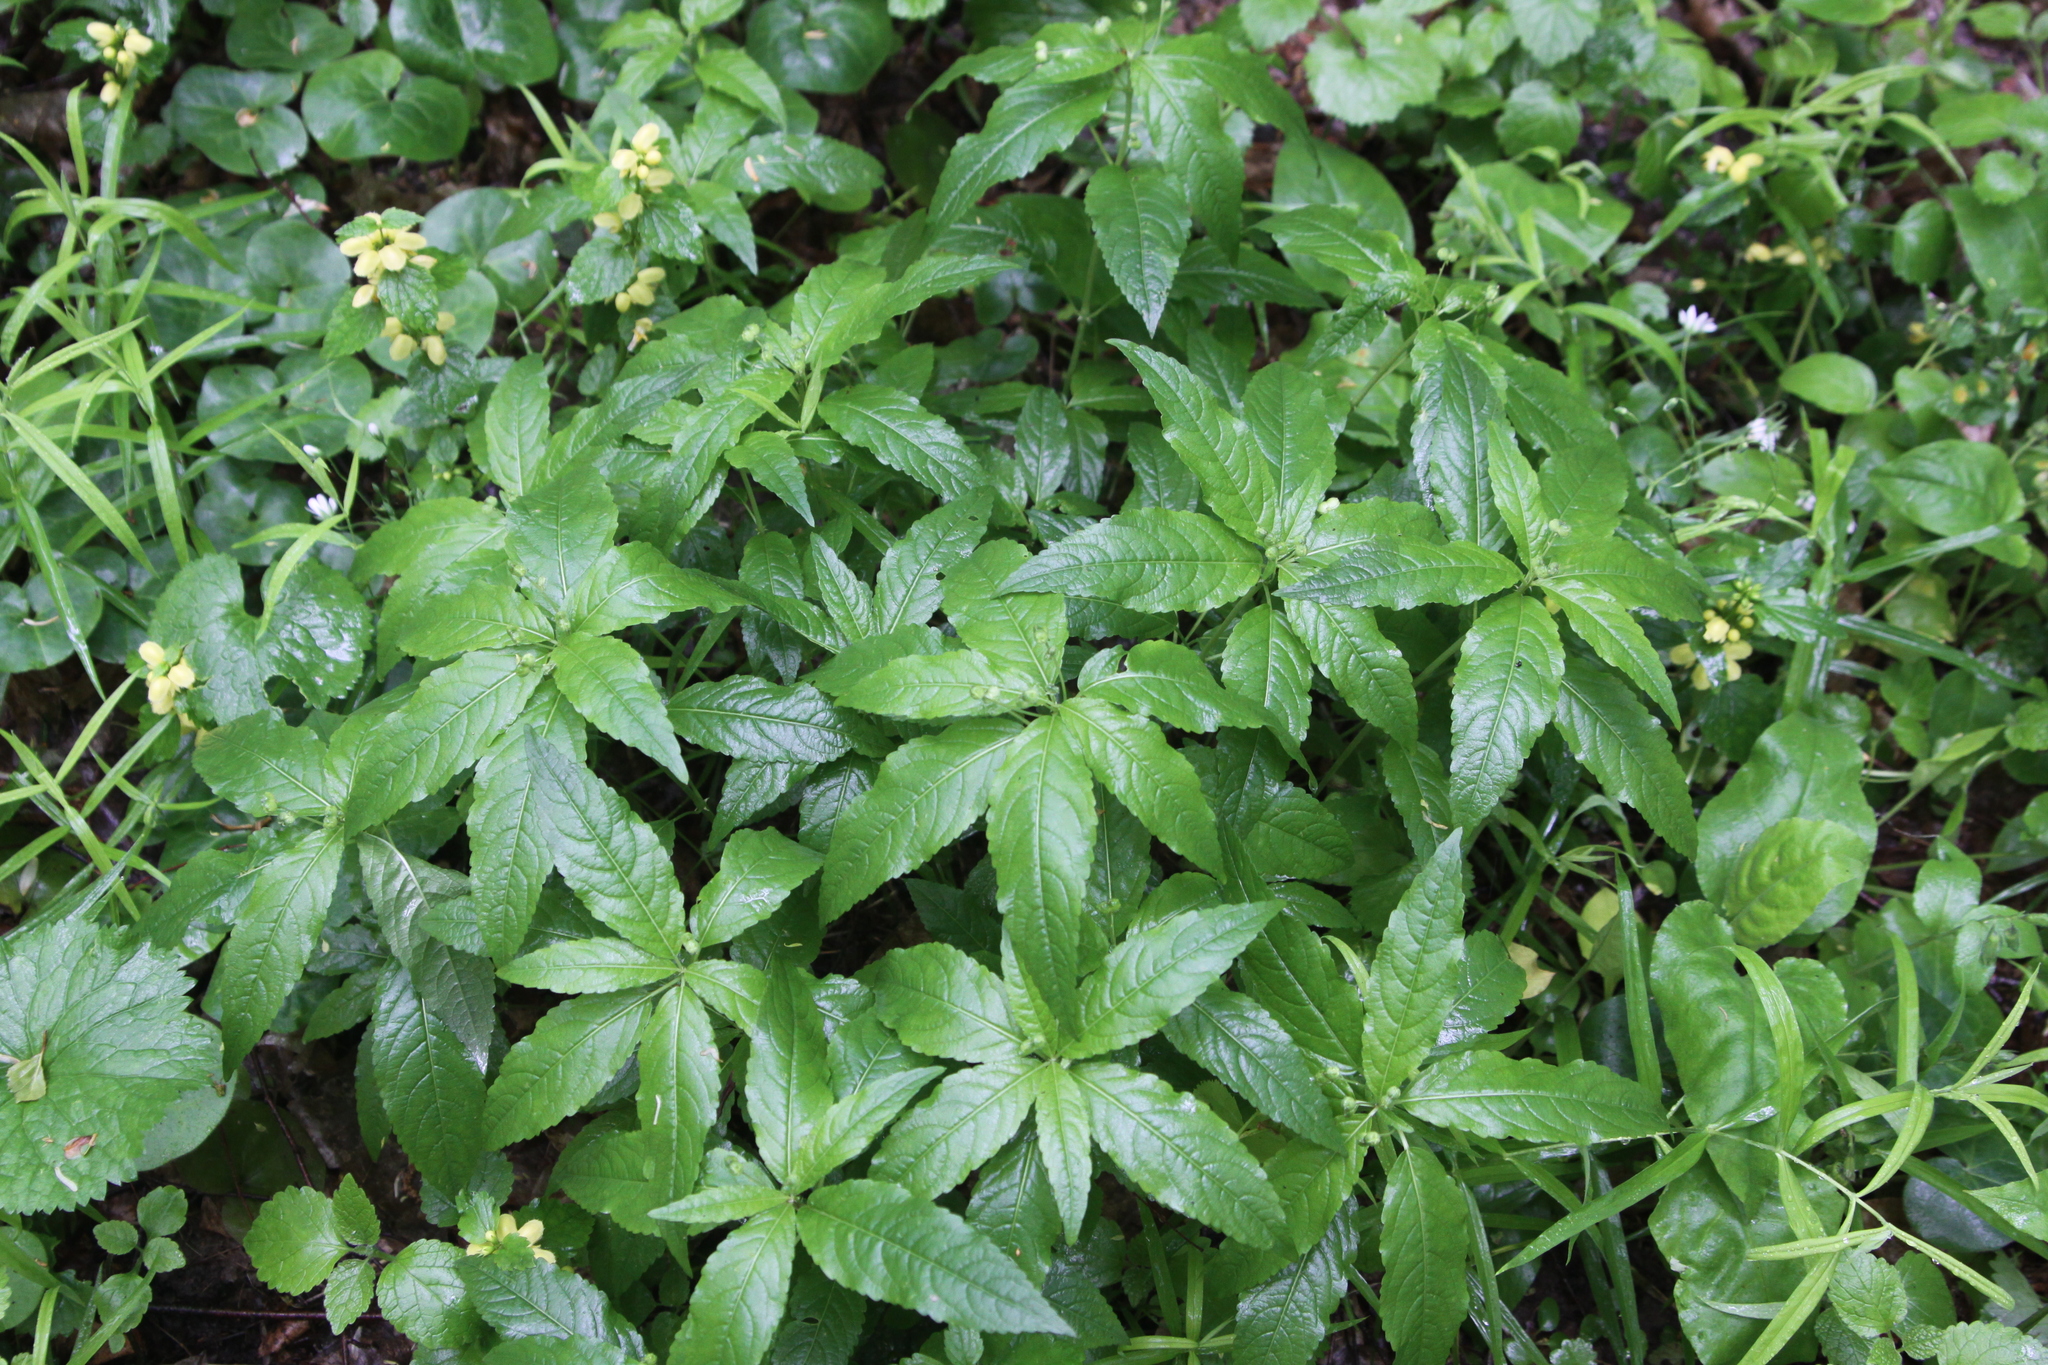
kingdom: Plantae
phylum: Tracheophyta
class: Magnoliopsida
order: Malpighiales
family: Euphorbiaceae
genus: Mercurialis
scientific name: Mercurialis perennis
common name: Dog mercury
